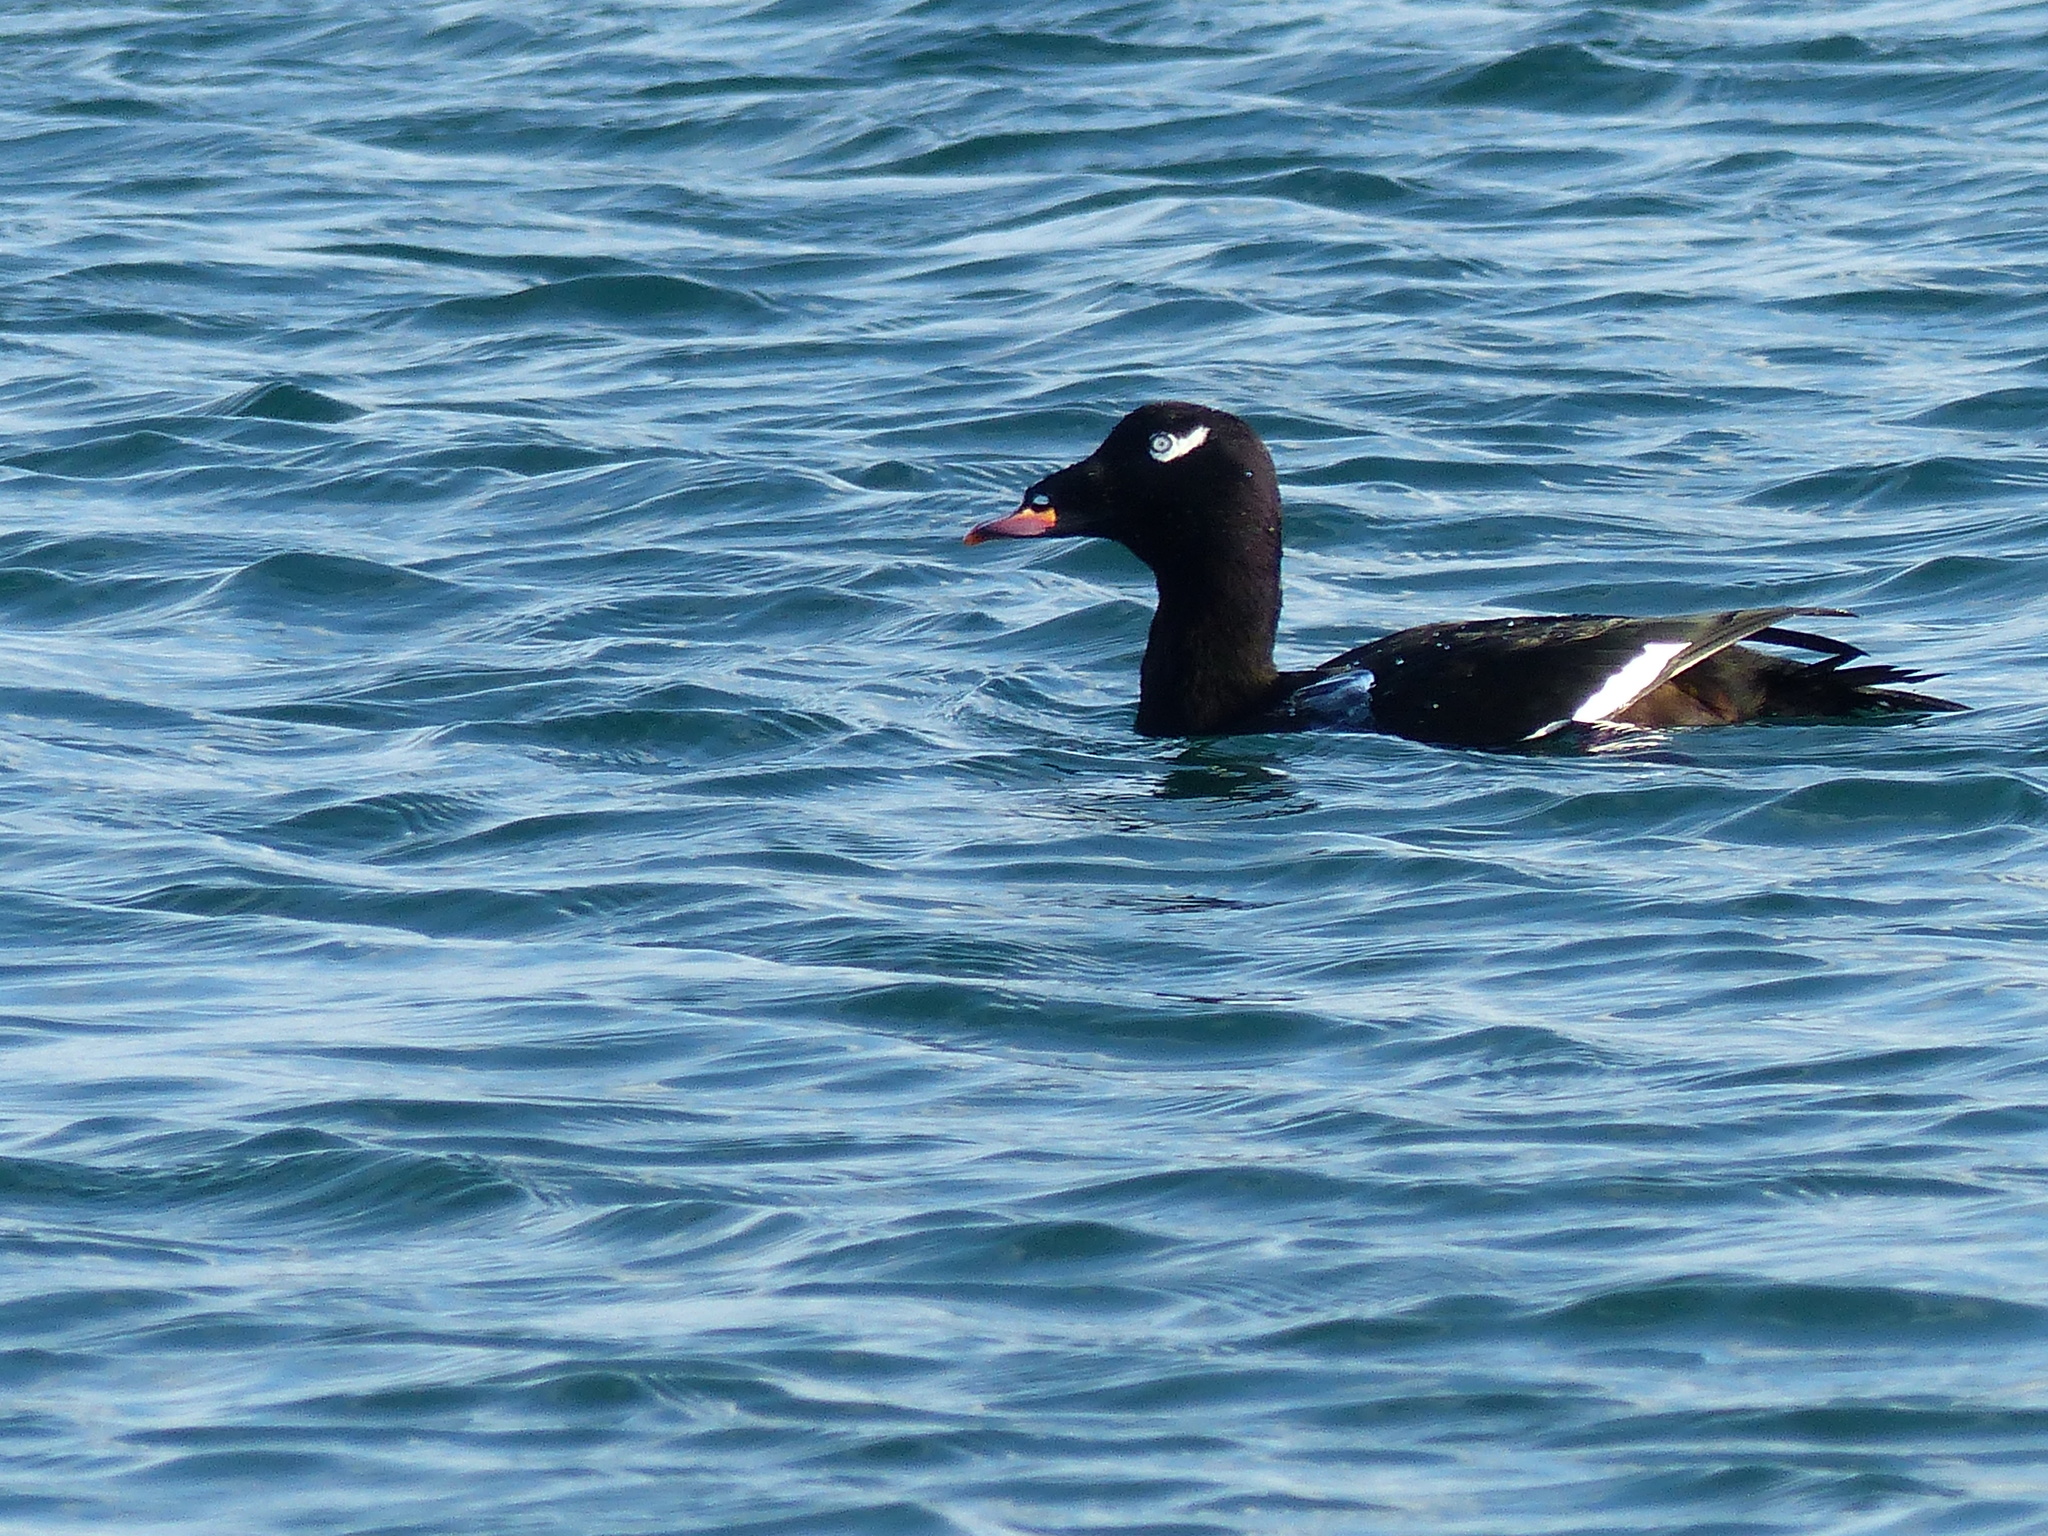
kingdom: Animalia
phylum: Chordata
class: Aves
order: Anseriformes
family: Anatidae
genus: Melanitta
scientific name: Melanitta deglandi
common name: White-winged scoter
